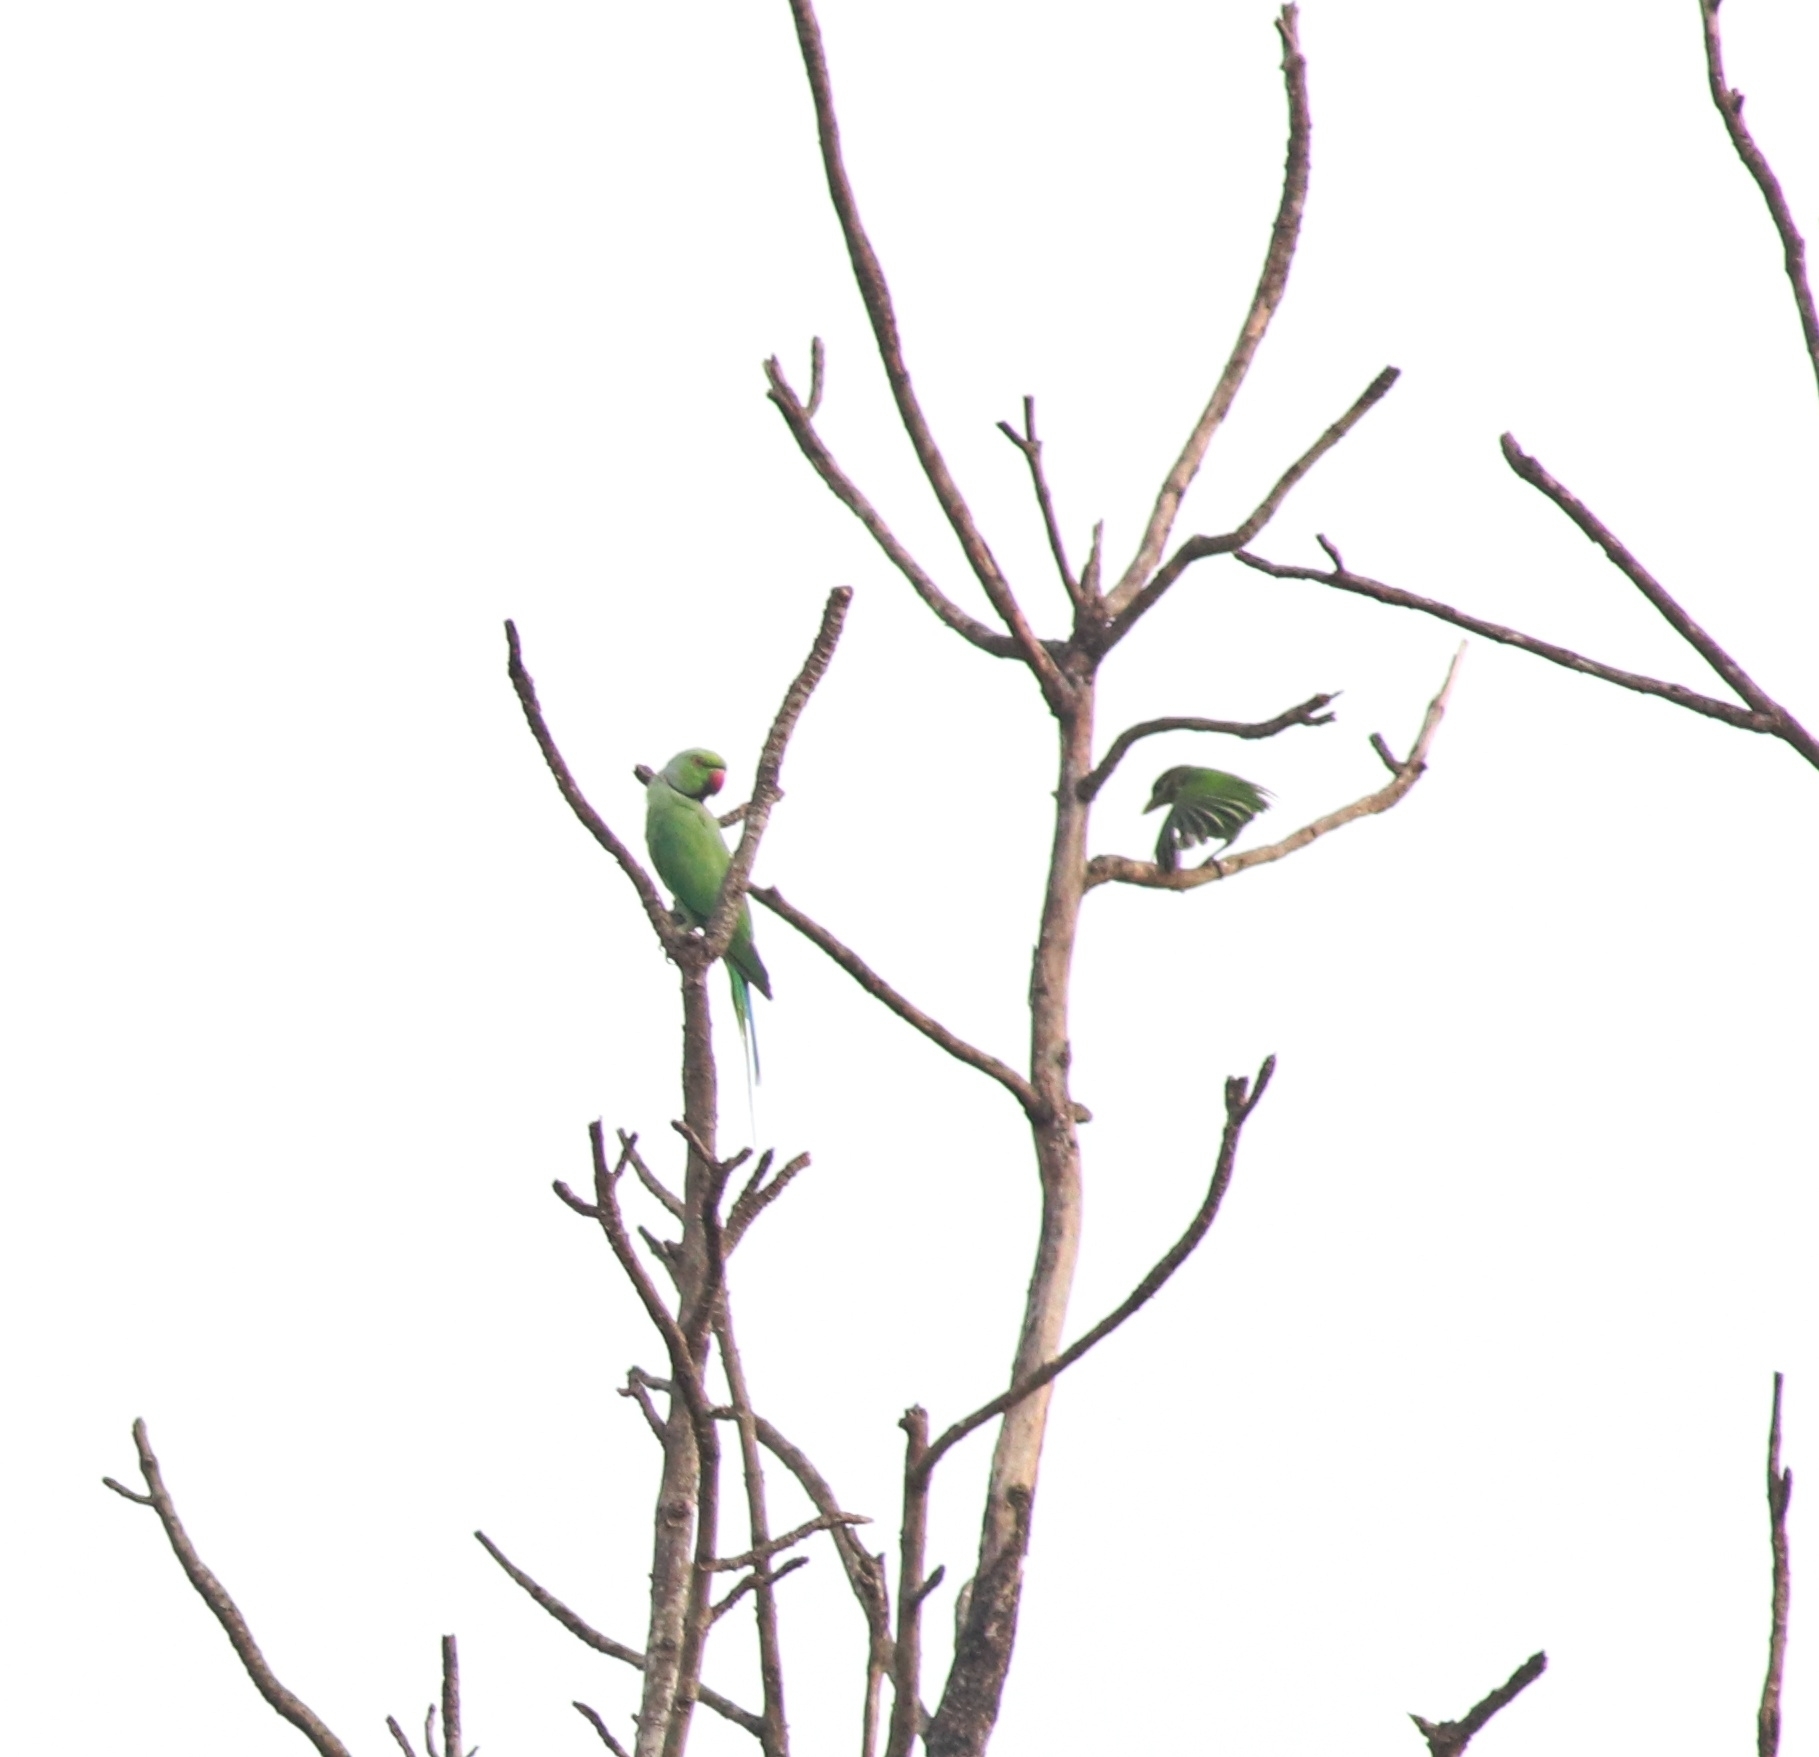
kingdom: Animalia
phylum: Chordata
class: Aves
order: Psittaciformes
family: Psittacidae
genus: Psittacula
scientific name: Psittacula krameri
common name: Rose-ringed parakeet
